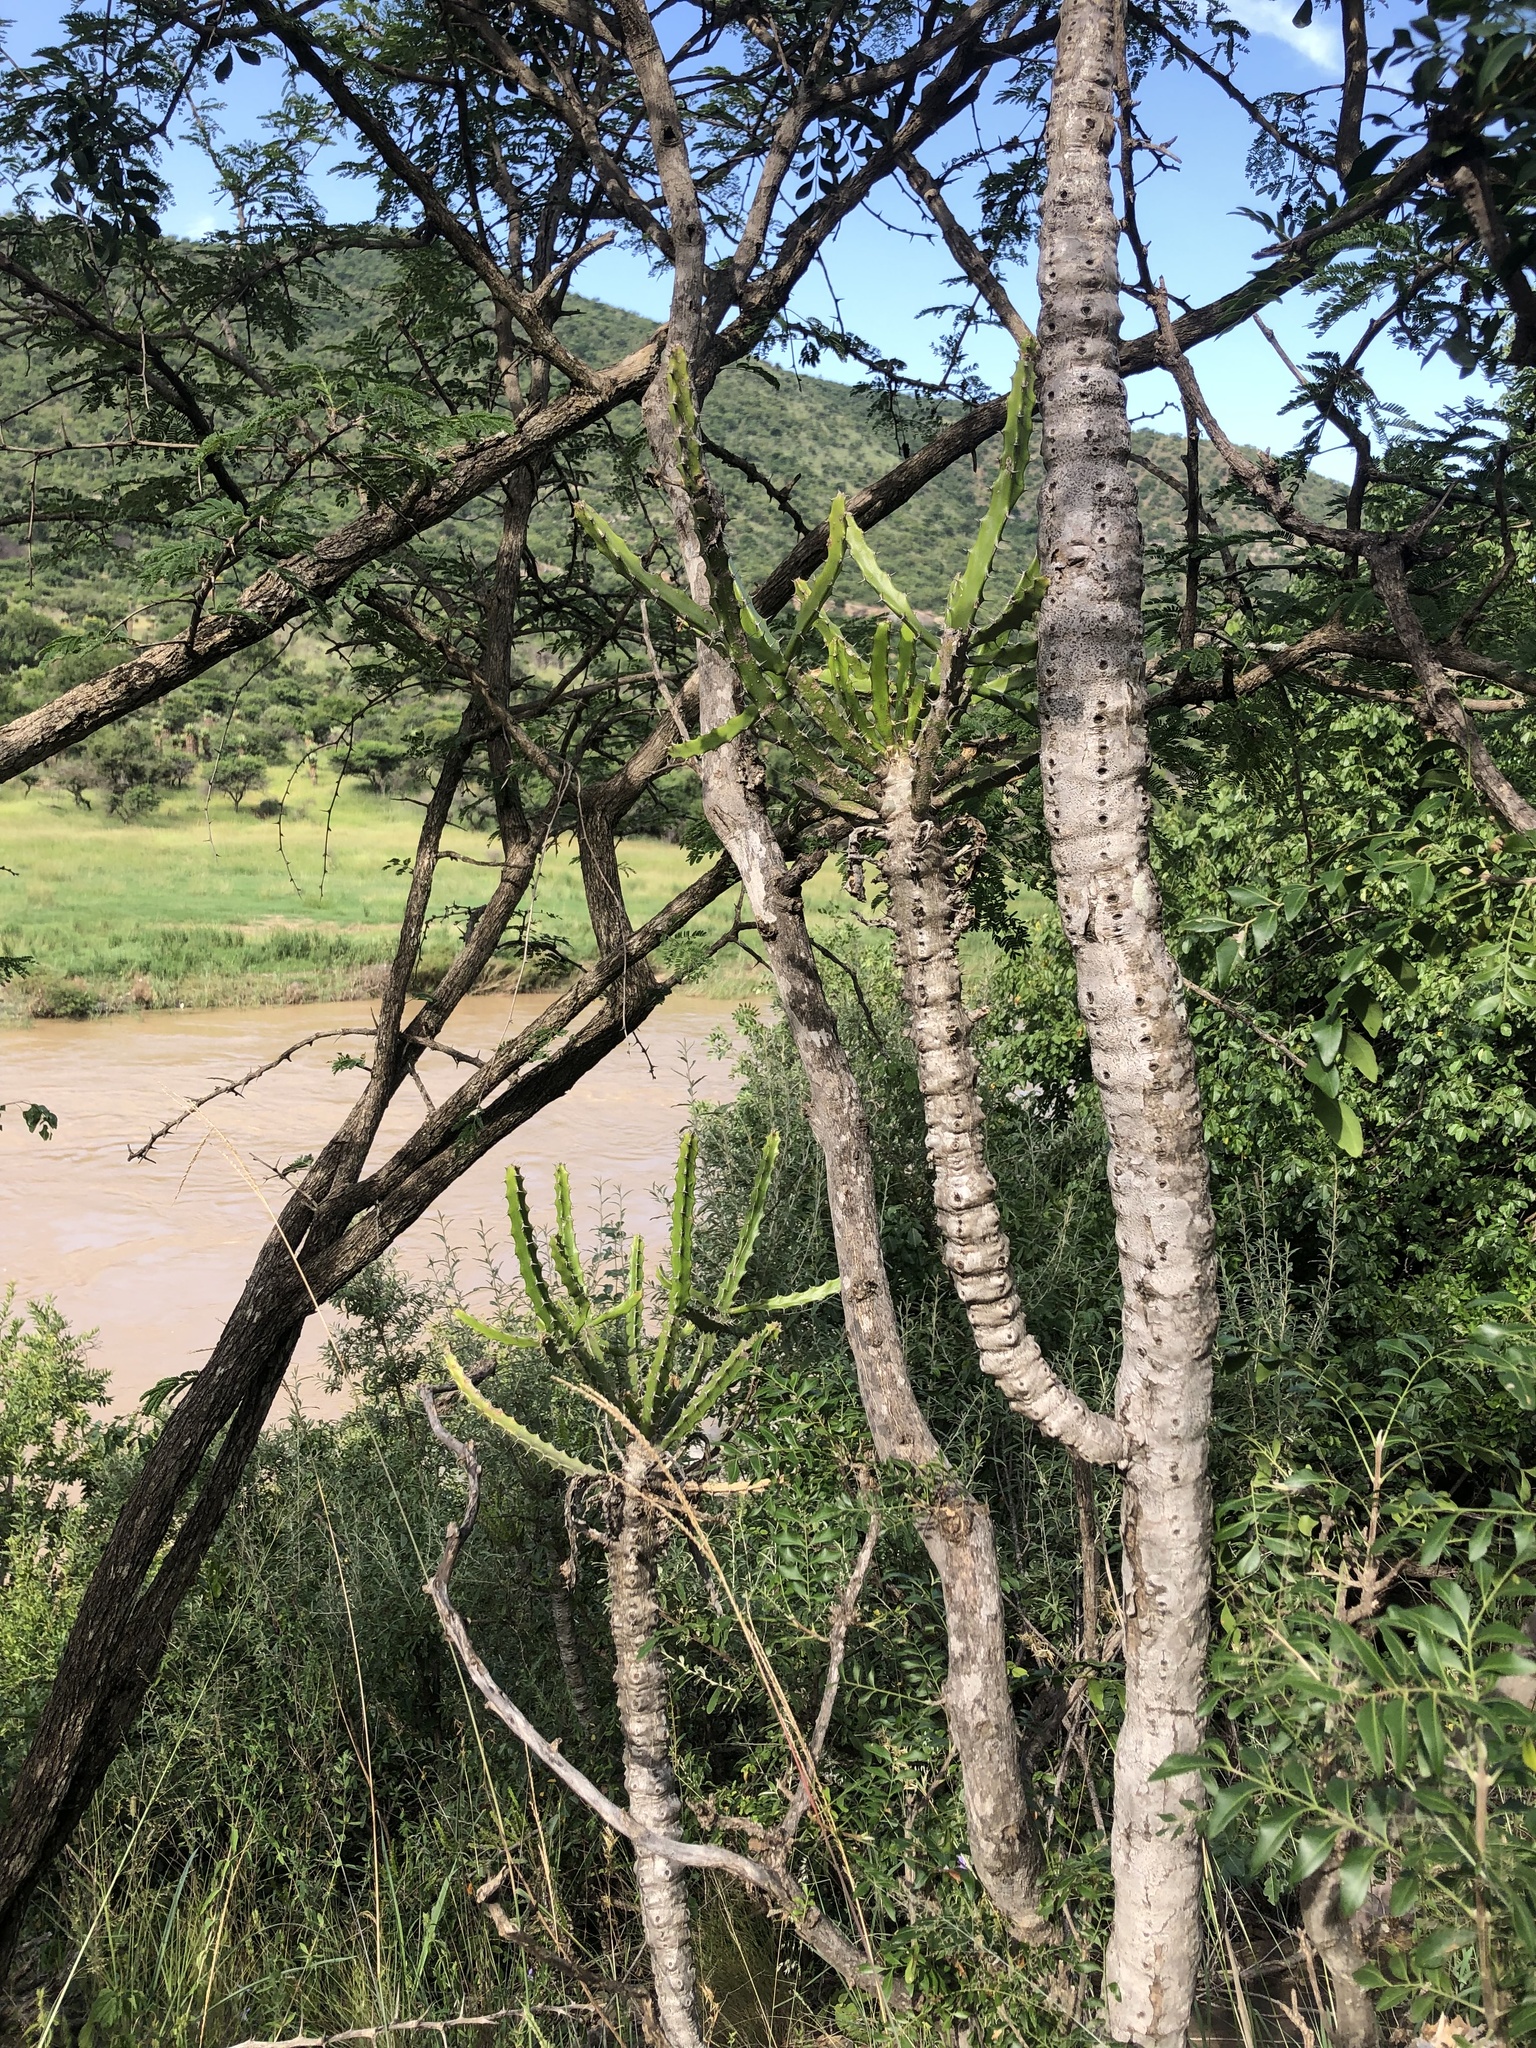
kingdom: Plantae
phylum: Tracheophyta
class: Magnoliopsida
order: Malpighiales
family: Euphorbiaceae
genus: Euphorbia
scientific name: Euphorbia grandidens
